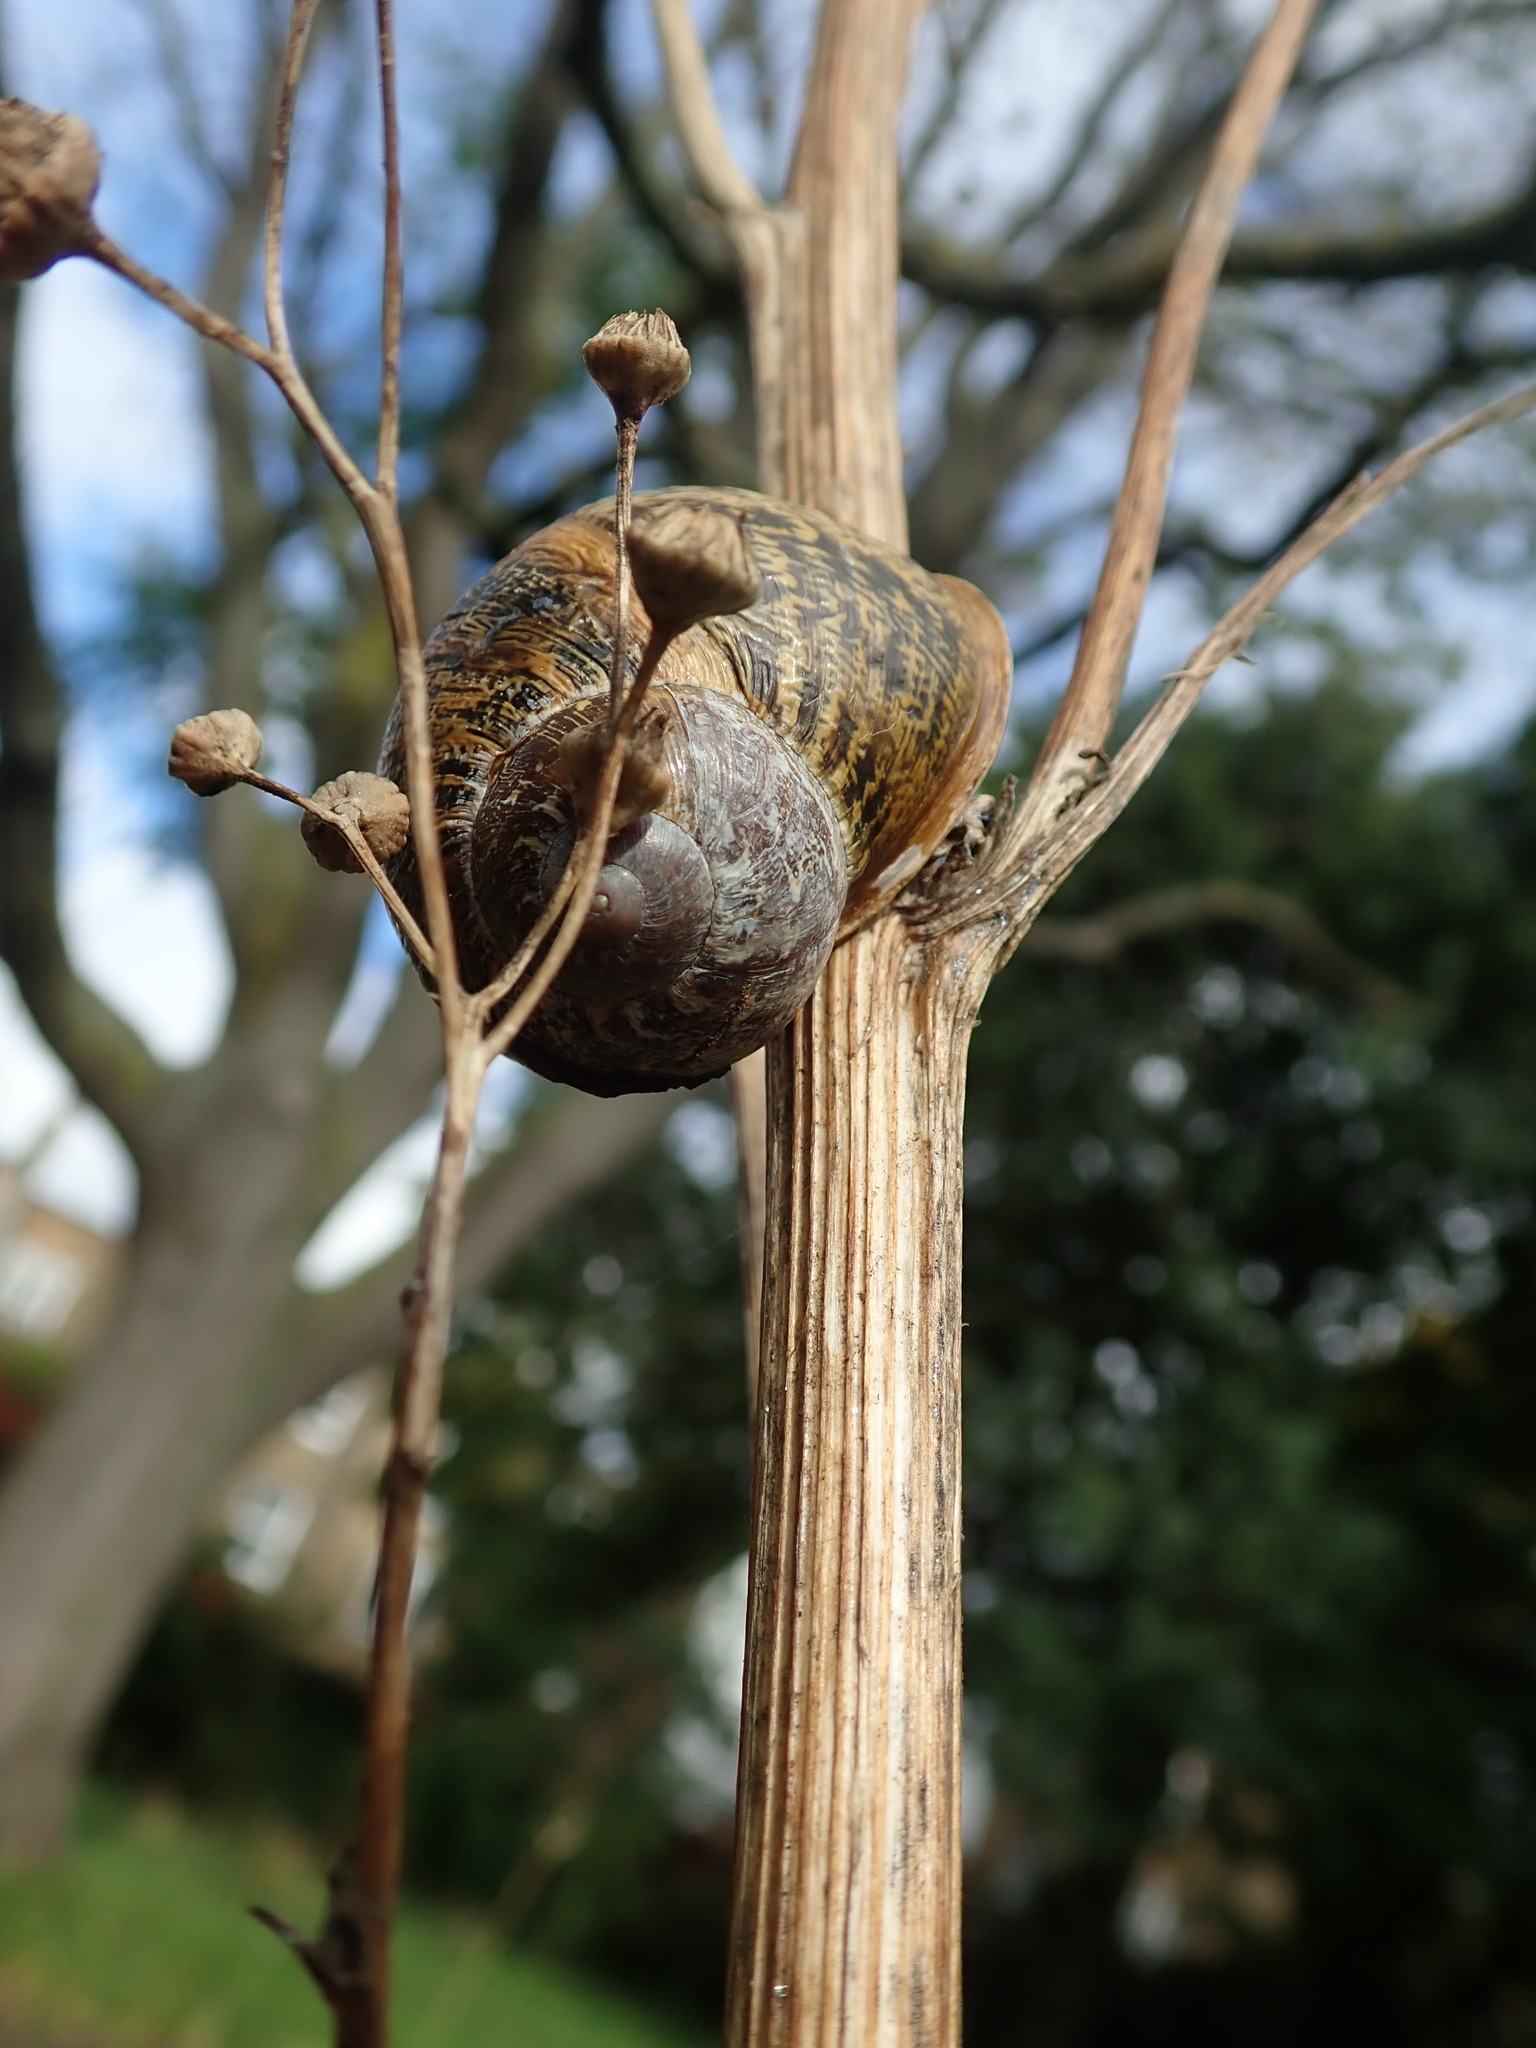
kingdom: Animalia
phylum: Mollusca
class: Gastropoda
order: Stylommatophora
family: Helicidae
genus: Cornu
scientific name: Cornu aspersum
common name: Brown garden snail
